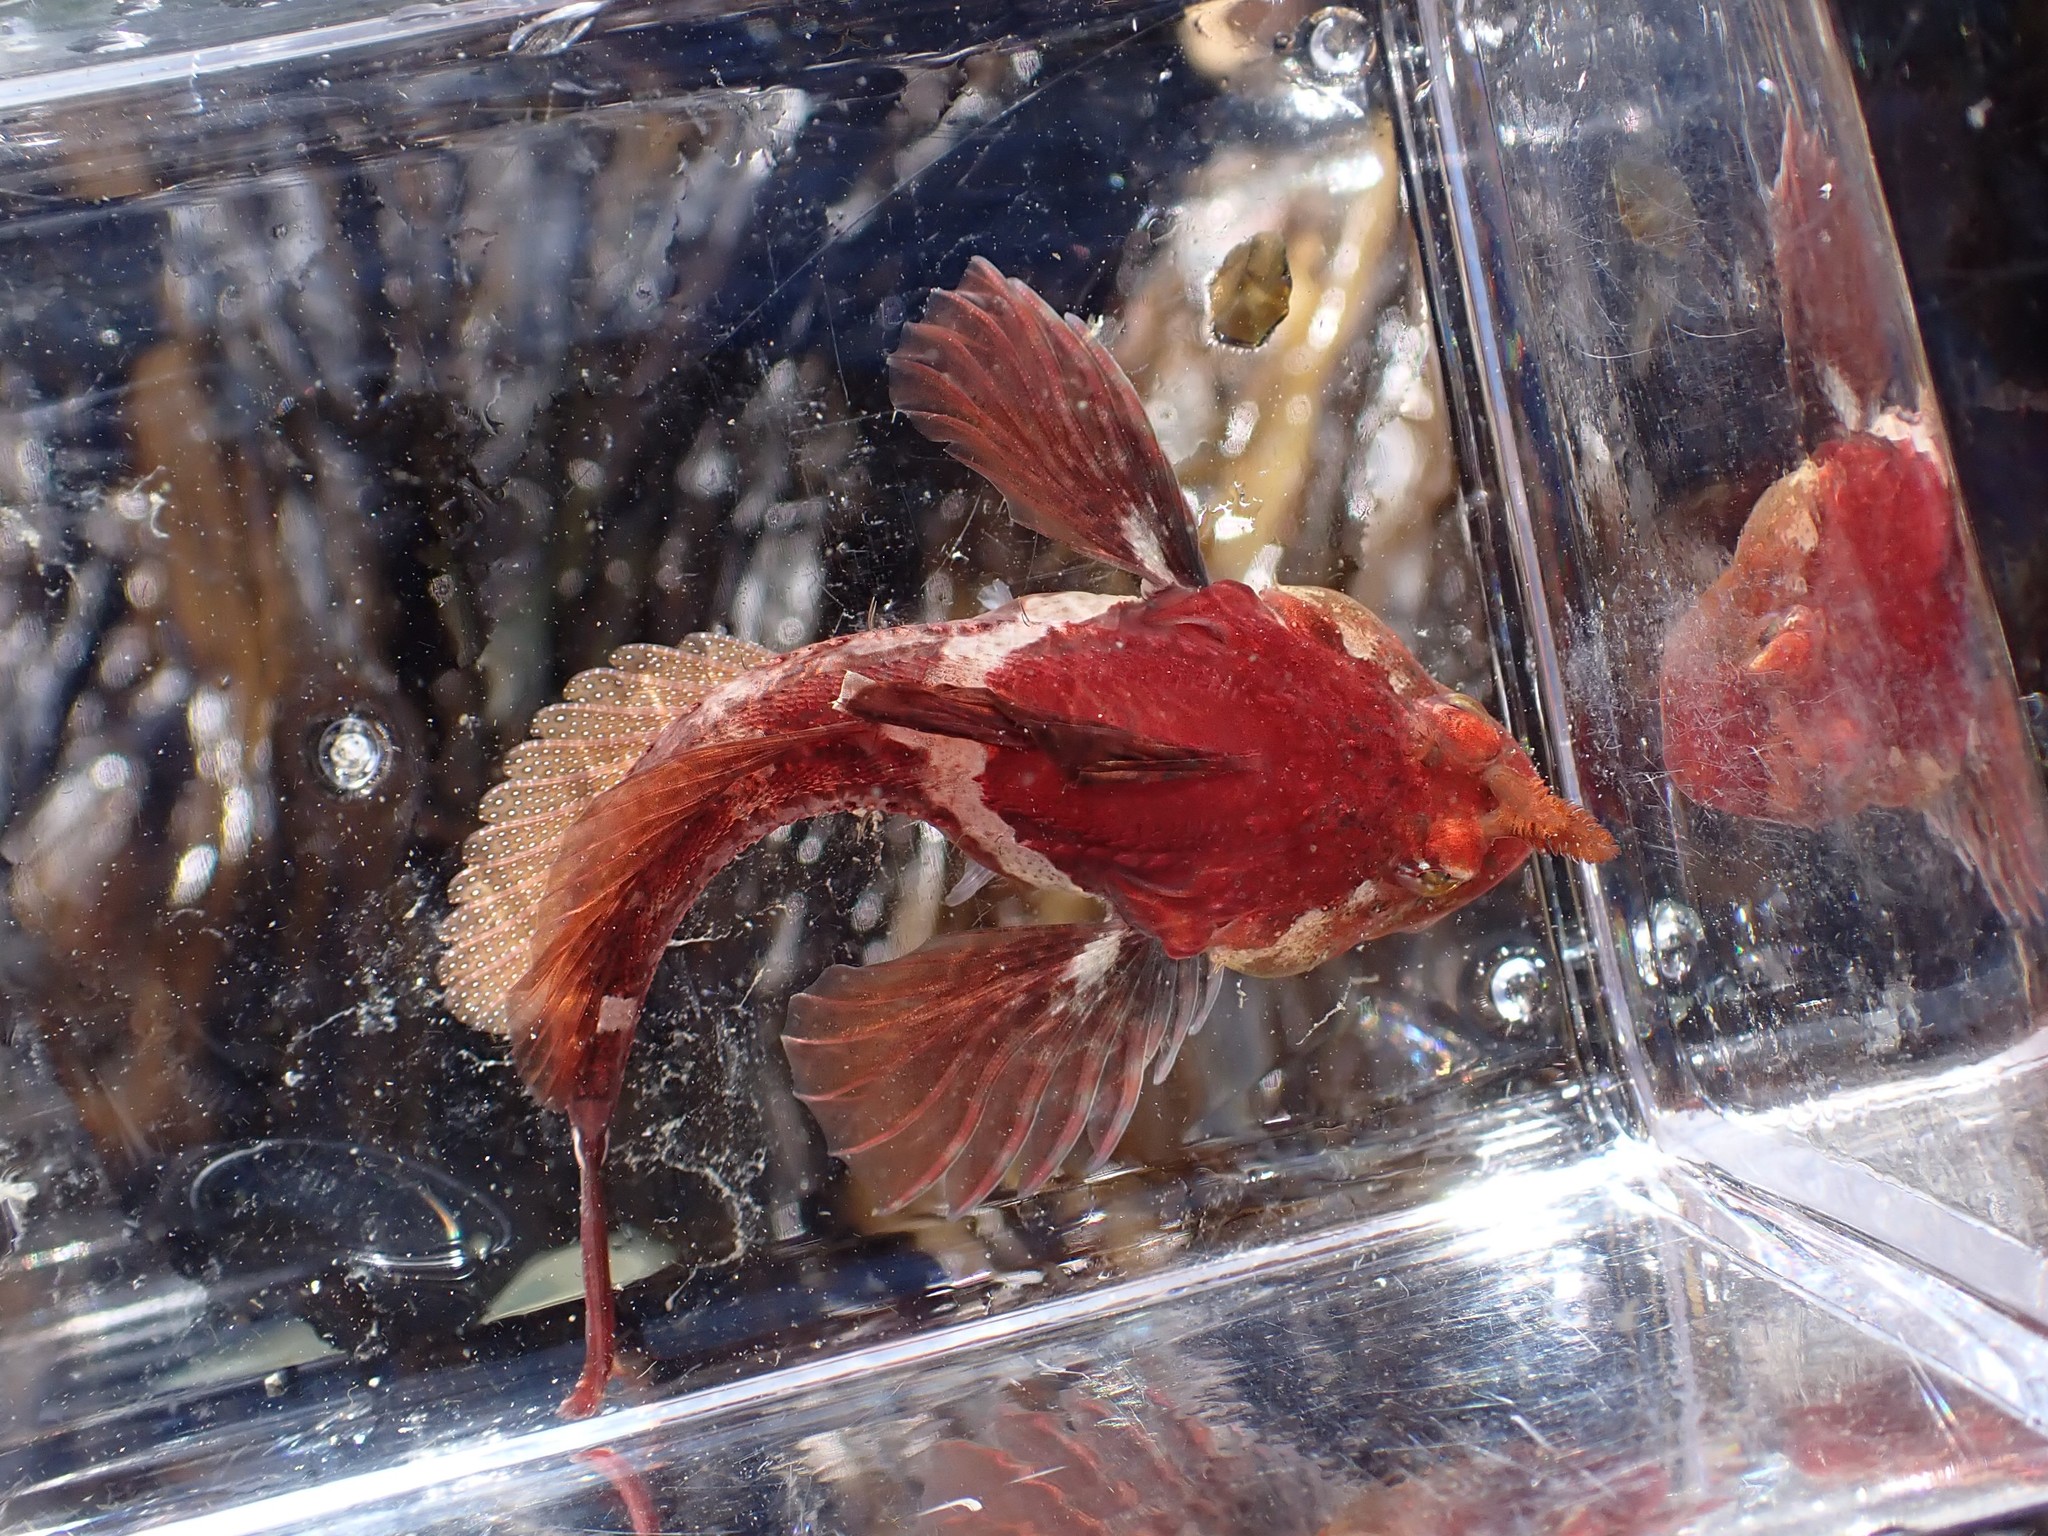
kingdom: Animalia
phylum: Chordata
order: Scorpaeniformes
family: Cottidae
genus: Artedius
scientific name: Artedius harringtoni
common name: Scalyhead sculpin
